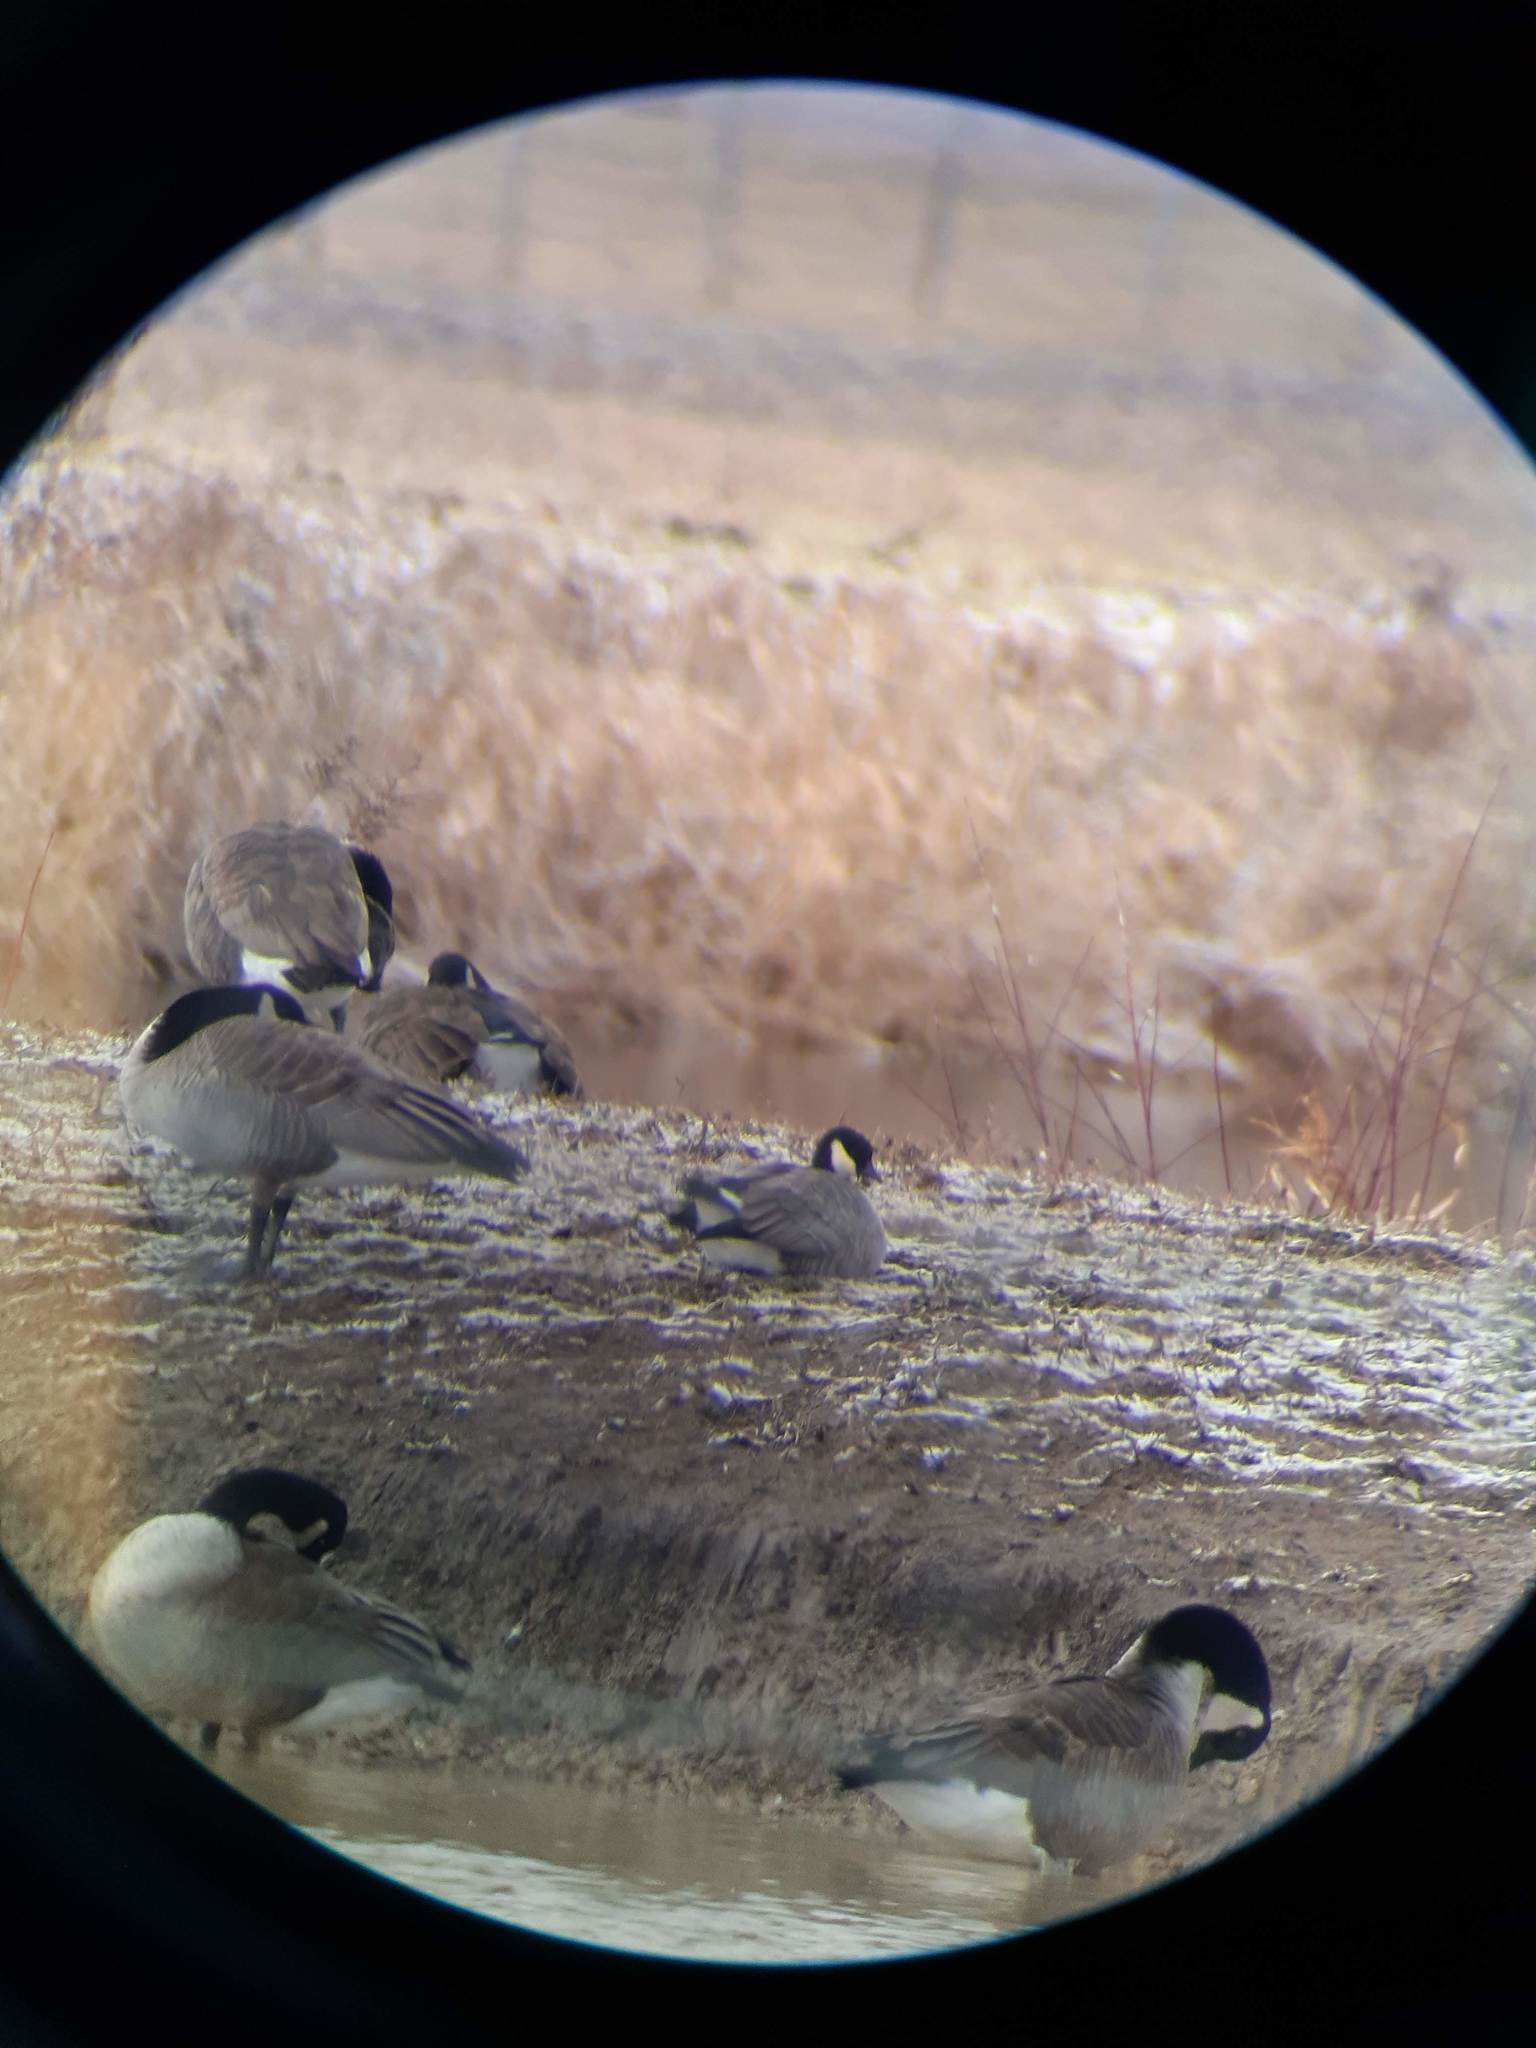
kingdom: Animalia
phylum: Chordata
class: Aves
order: Anseriformes
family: Anatidae
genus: Branta
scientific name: Branta hutchinsii
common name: Cackling goose
